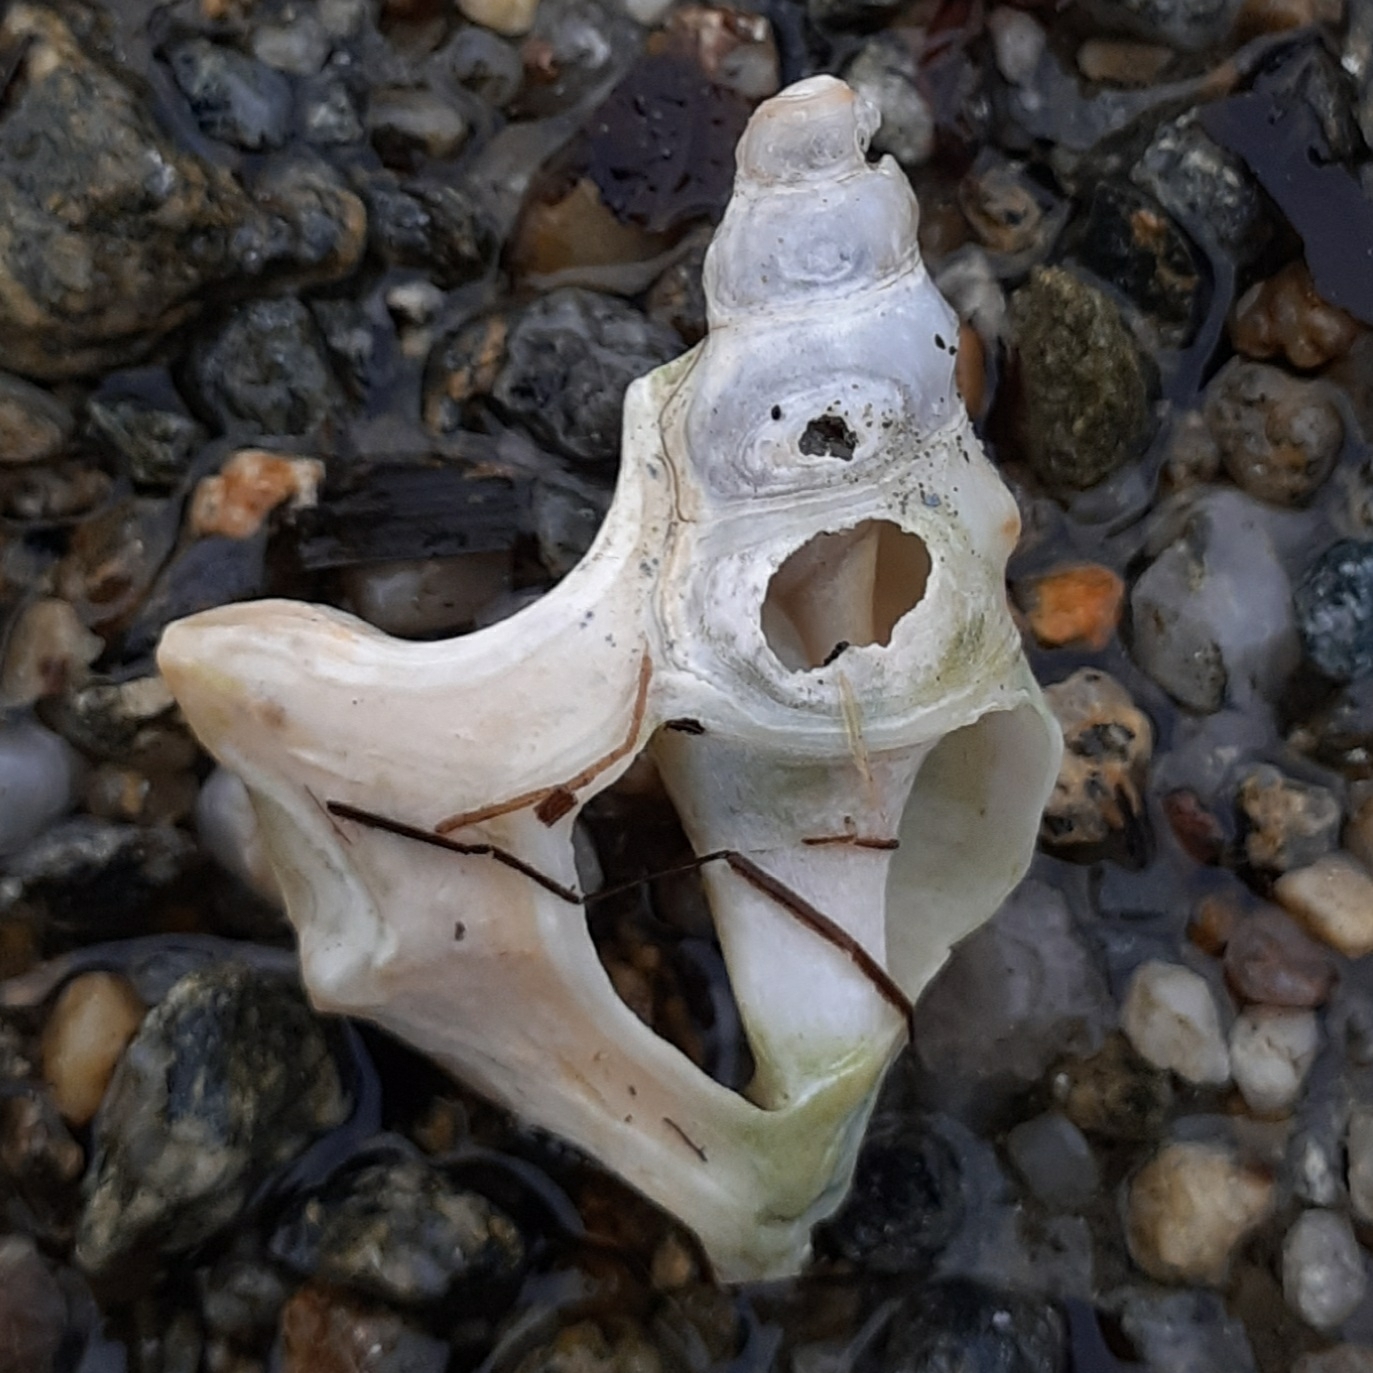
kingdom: Animalia
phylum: Mollusca
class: Gastropoda
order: Littorinimorpha
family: Aporrhaidae
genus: Aporrhais
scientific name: Aporrhais pespelecani
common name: Common pelican’s foot
